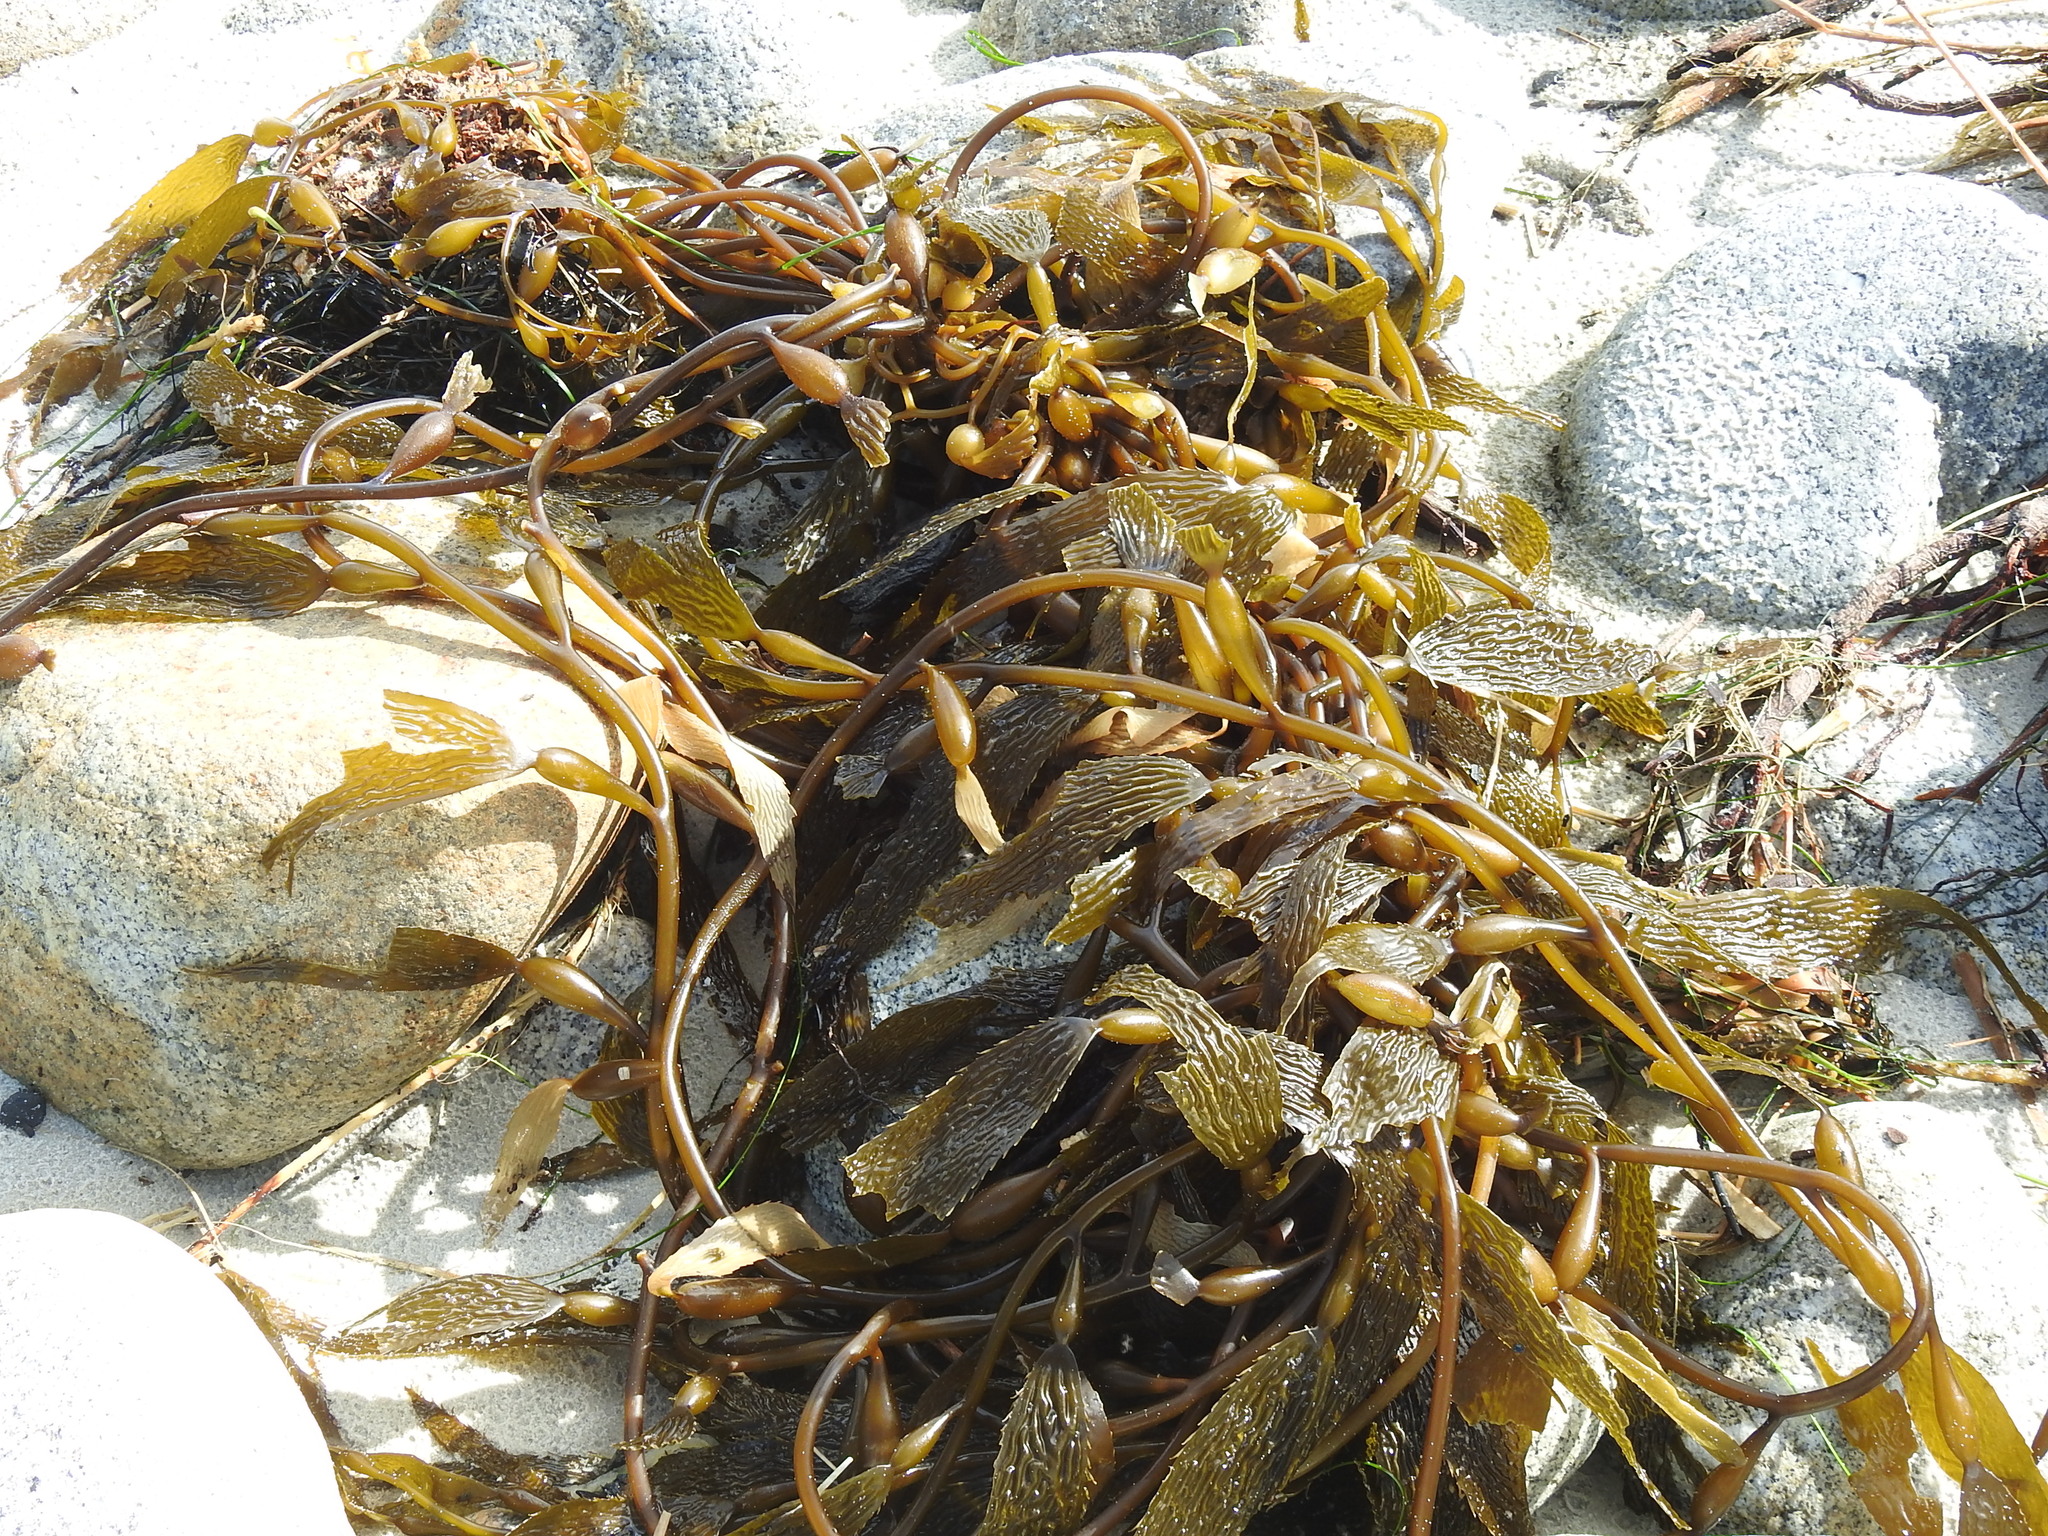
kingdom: Chromista
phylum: Ochrophyta
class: Phaeophyceae
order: Laminariales
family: Laminariaceae
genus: Macrocystis
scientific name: Macrocystis pyrifera
